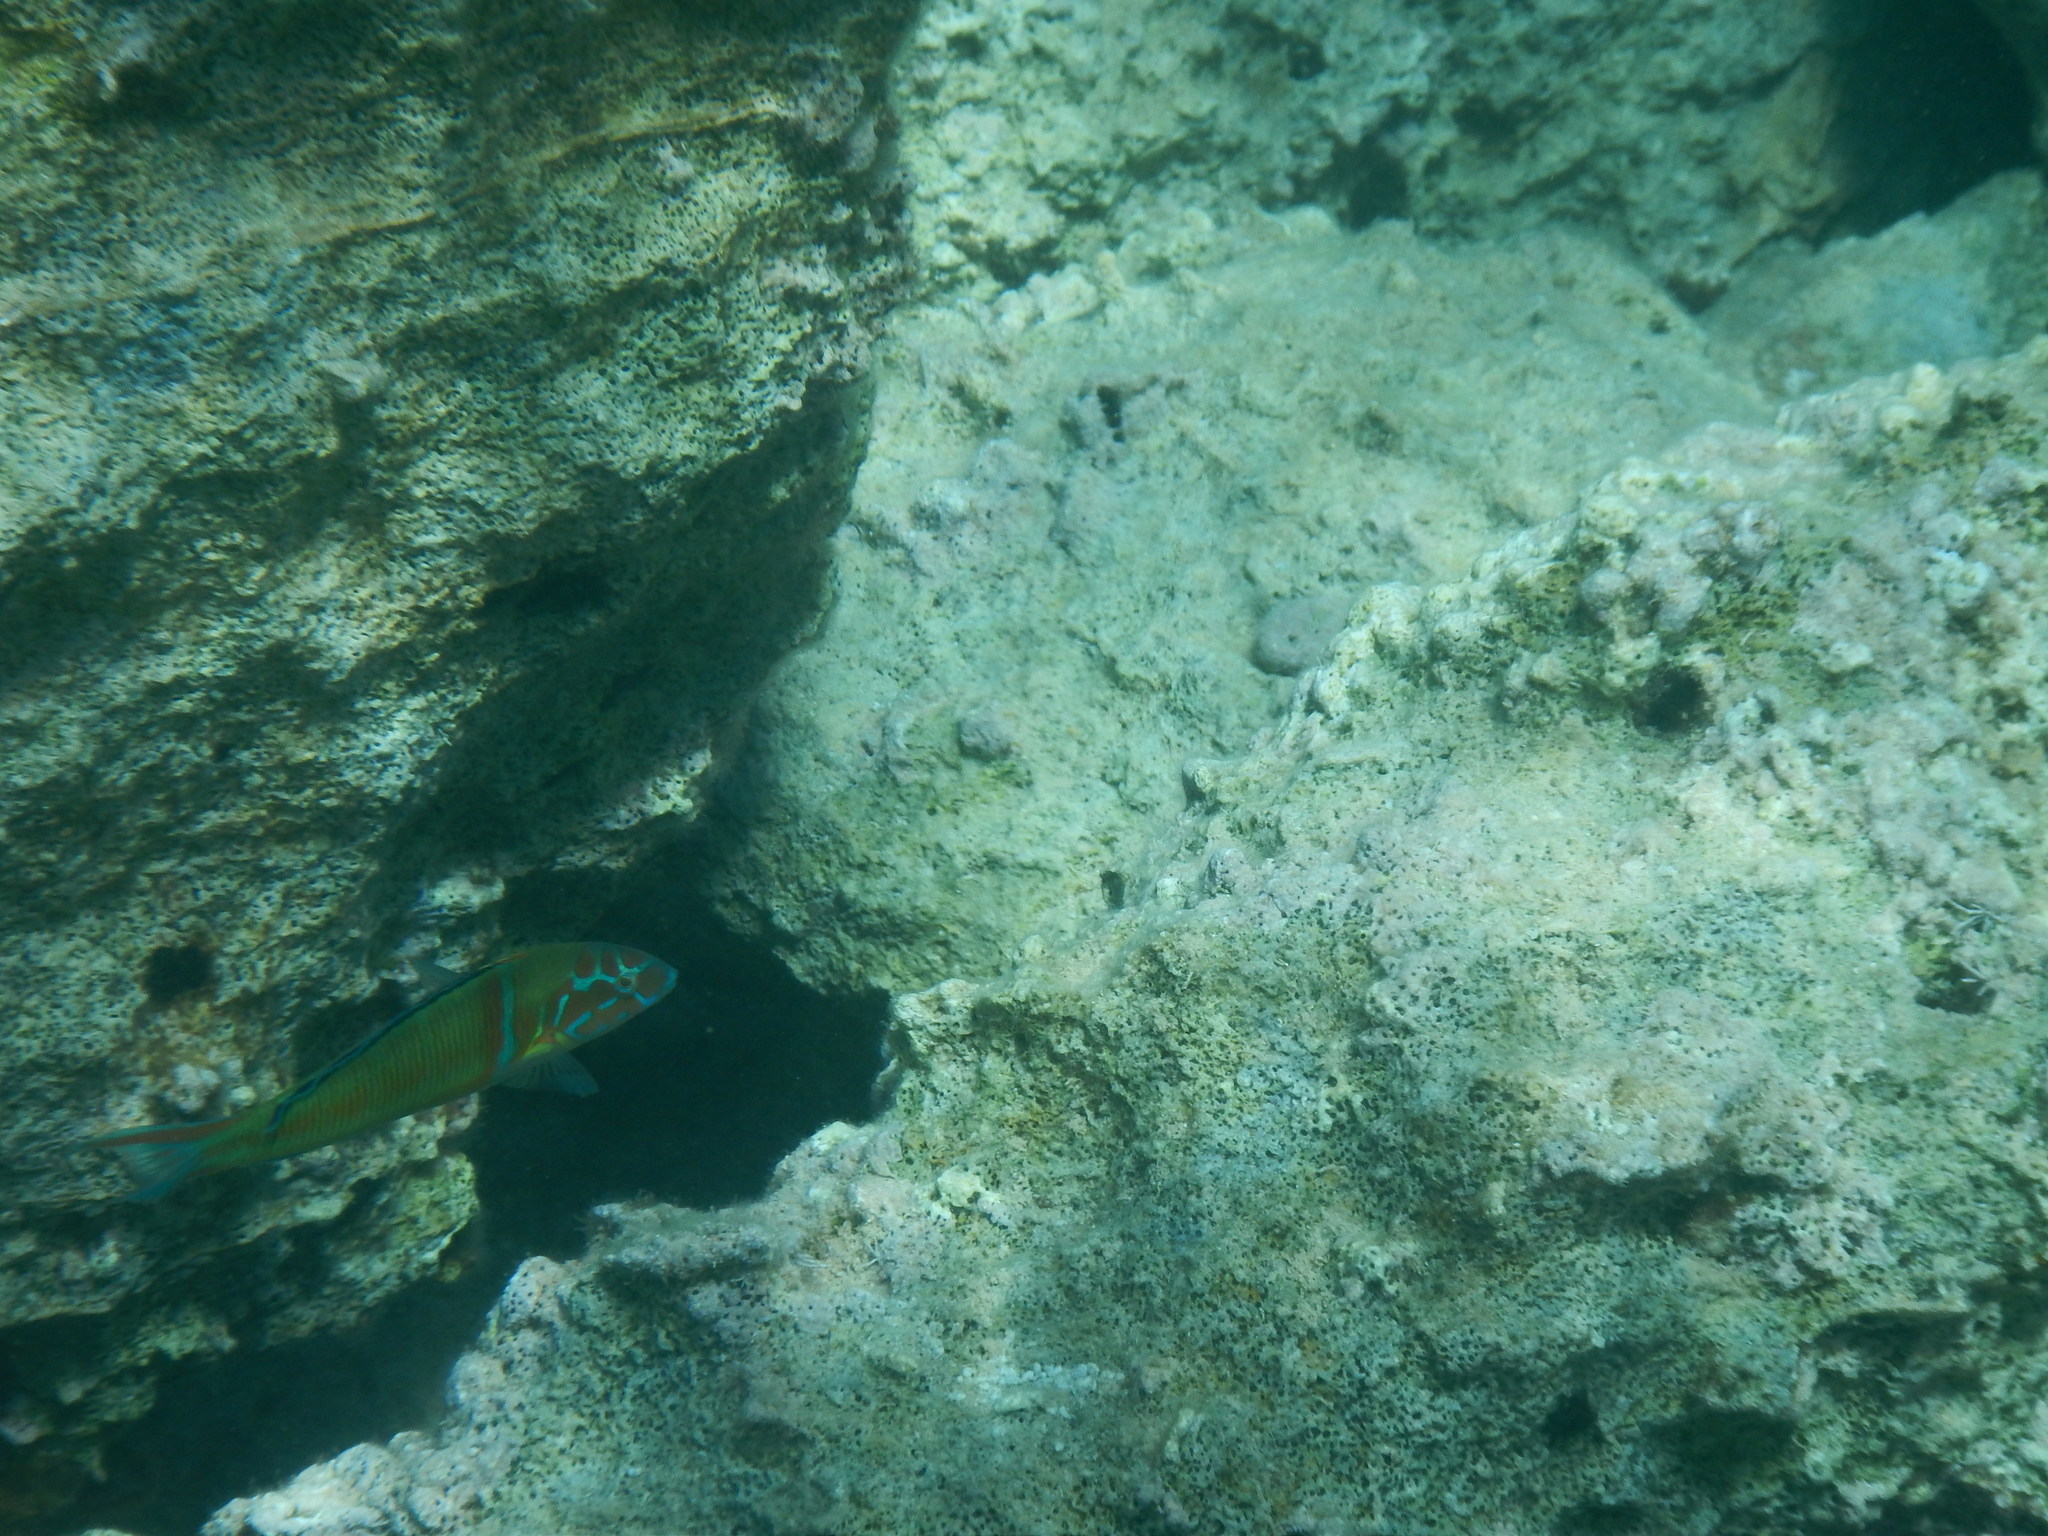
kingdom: Animalia
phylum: Chordata
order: Perciformes
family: Labridae
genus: Thalassoma
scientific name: Thalassoma pavo
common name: Ornate wrasse
